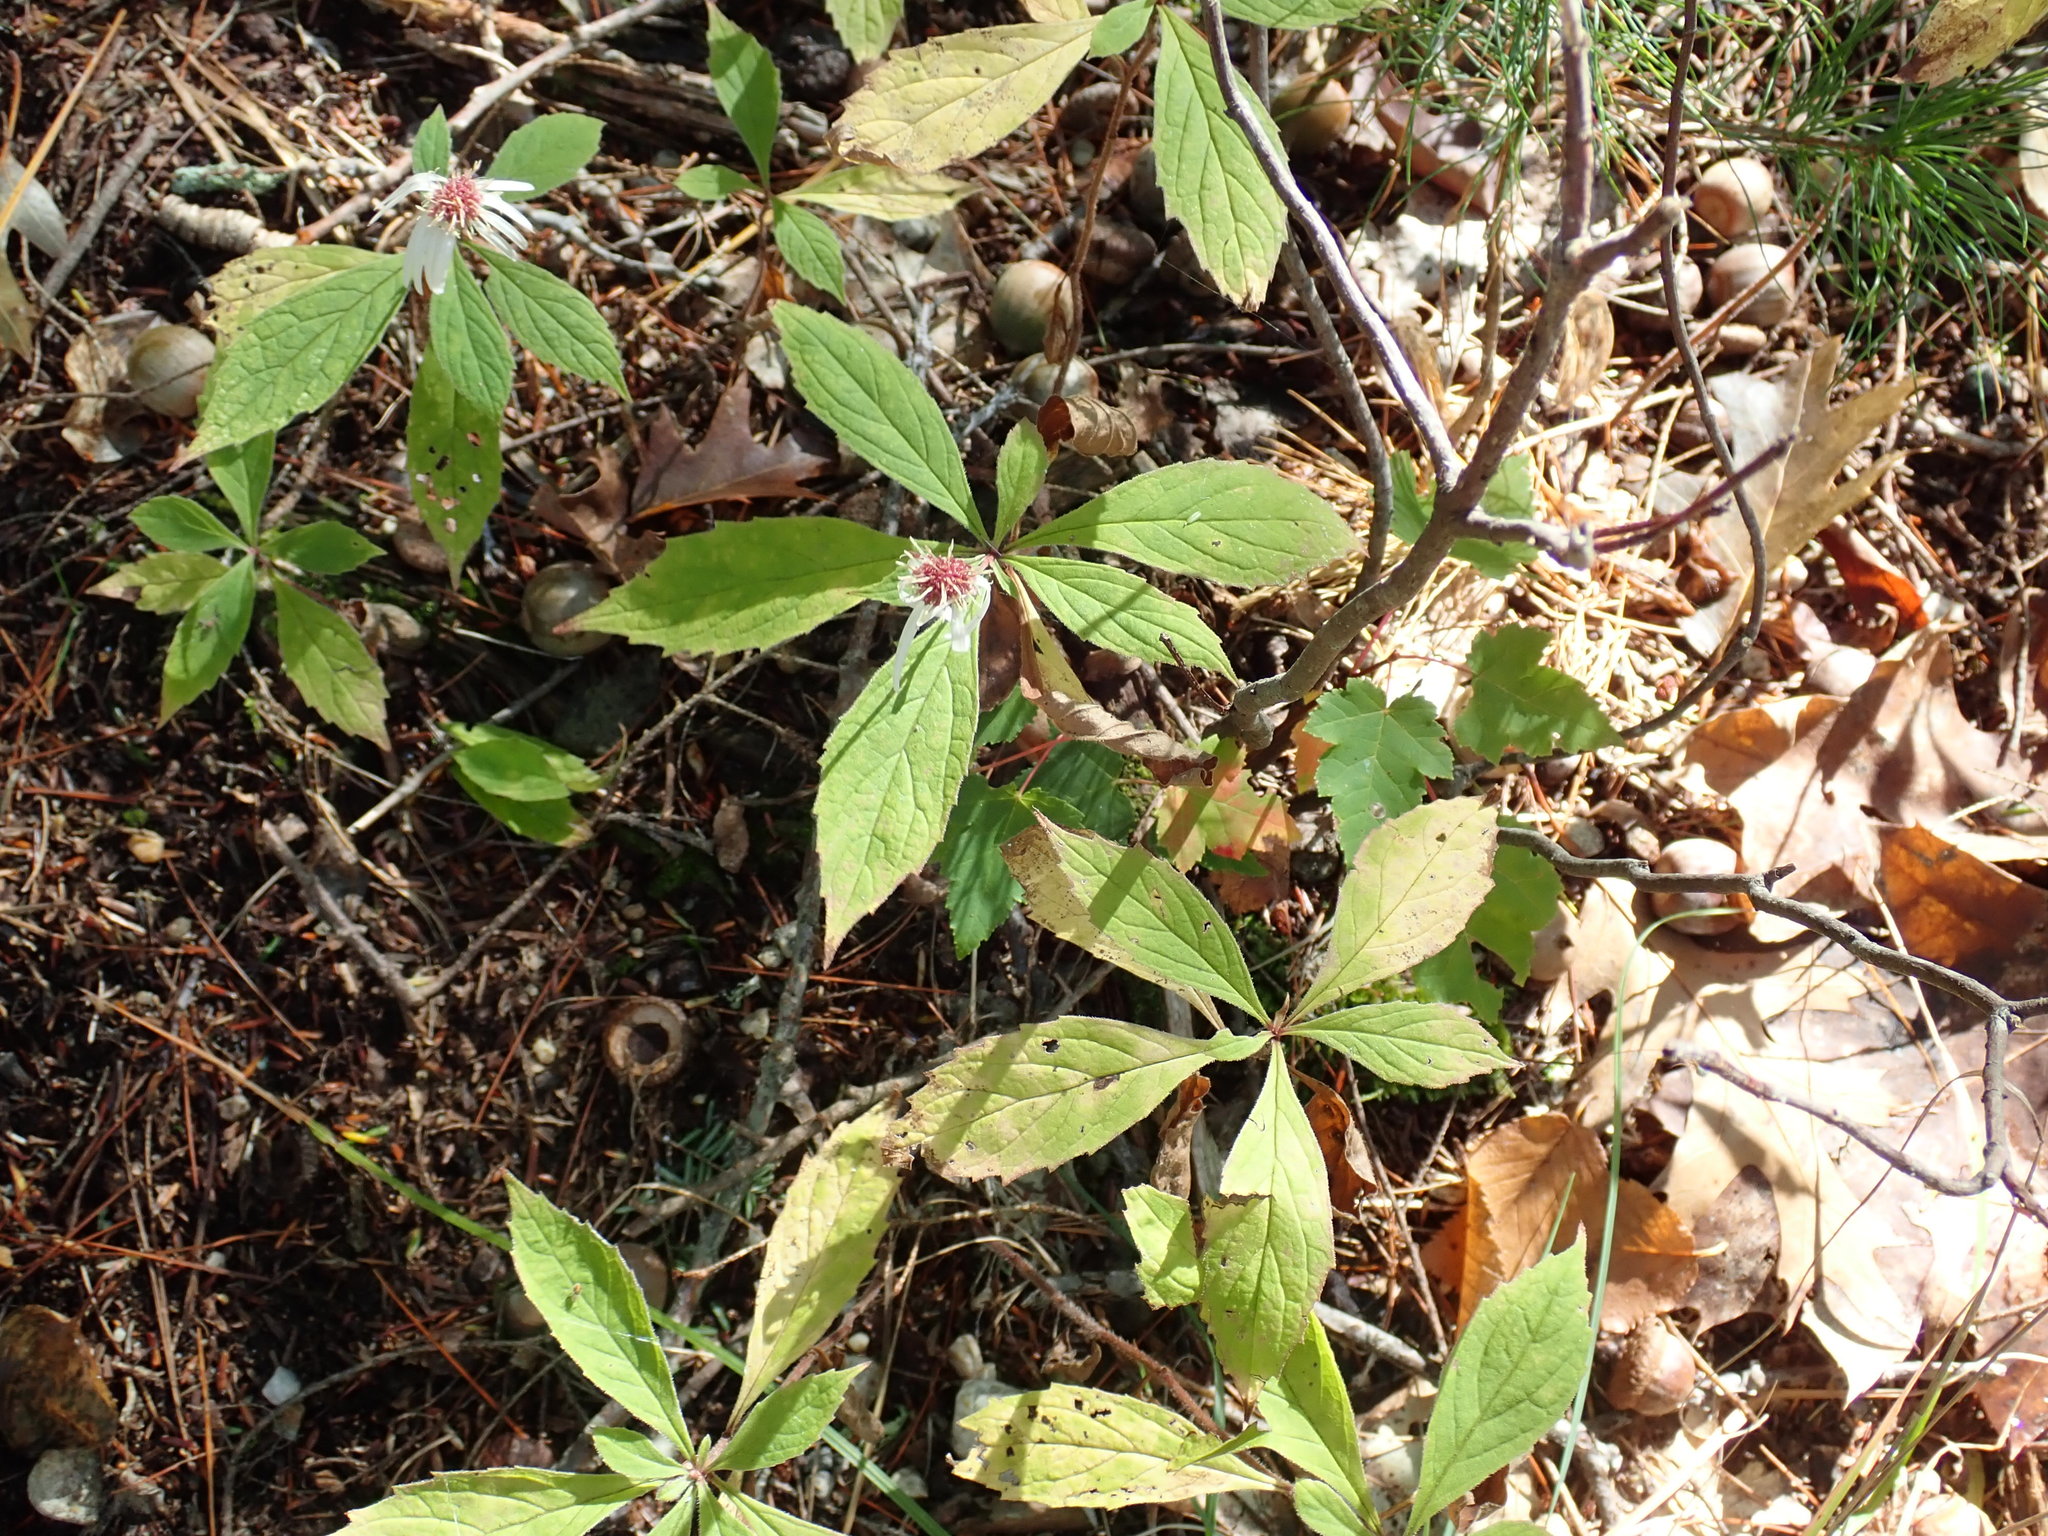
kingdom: Plantae
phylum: Tracheophyta
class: Magnoliopsida
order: Asterales
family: Asteraceae
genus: Oclemena
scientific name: Oclemena acuminata
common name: Mountain aster
